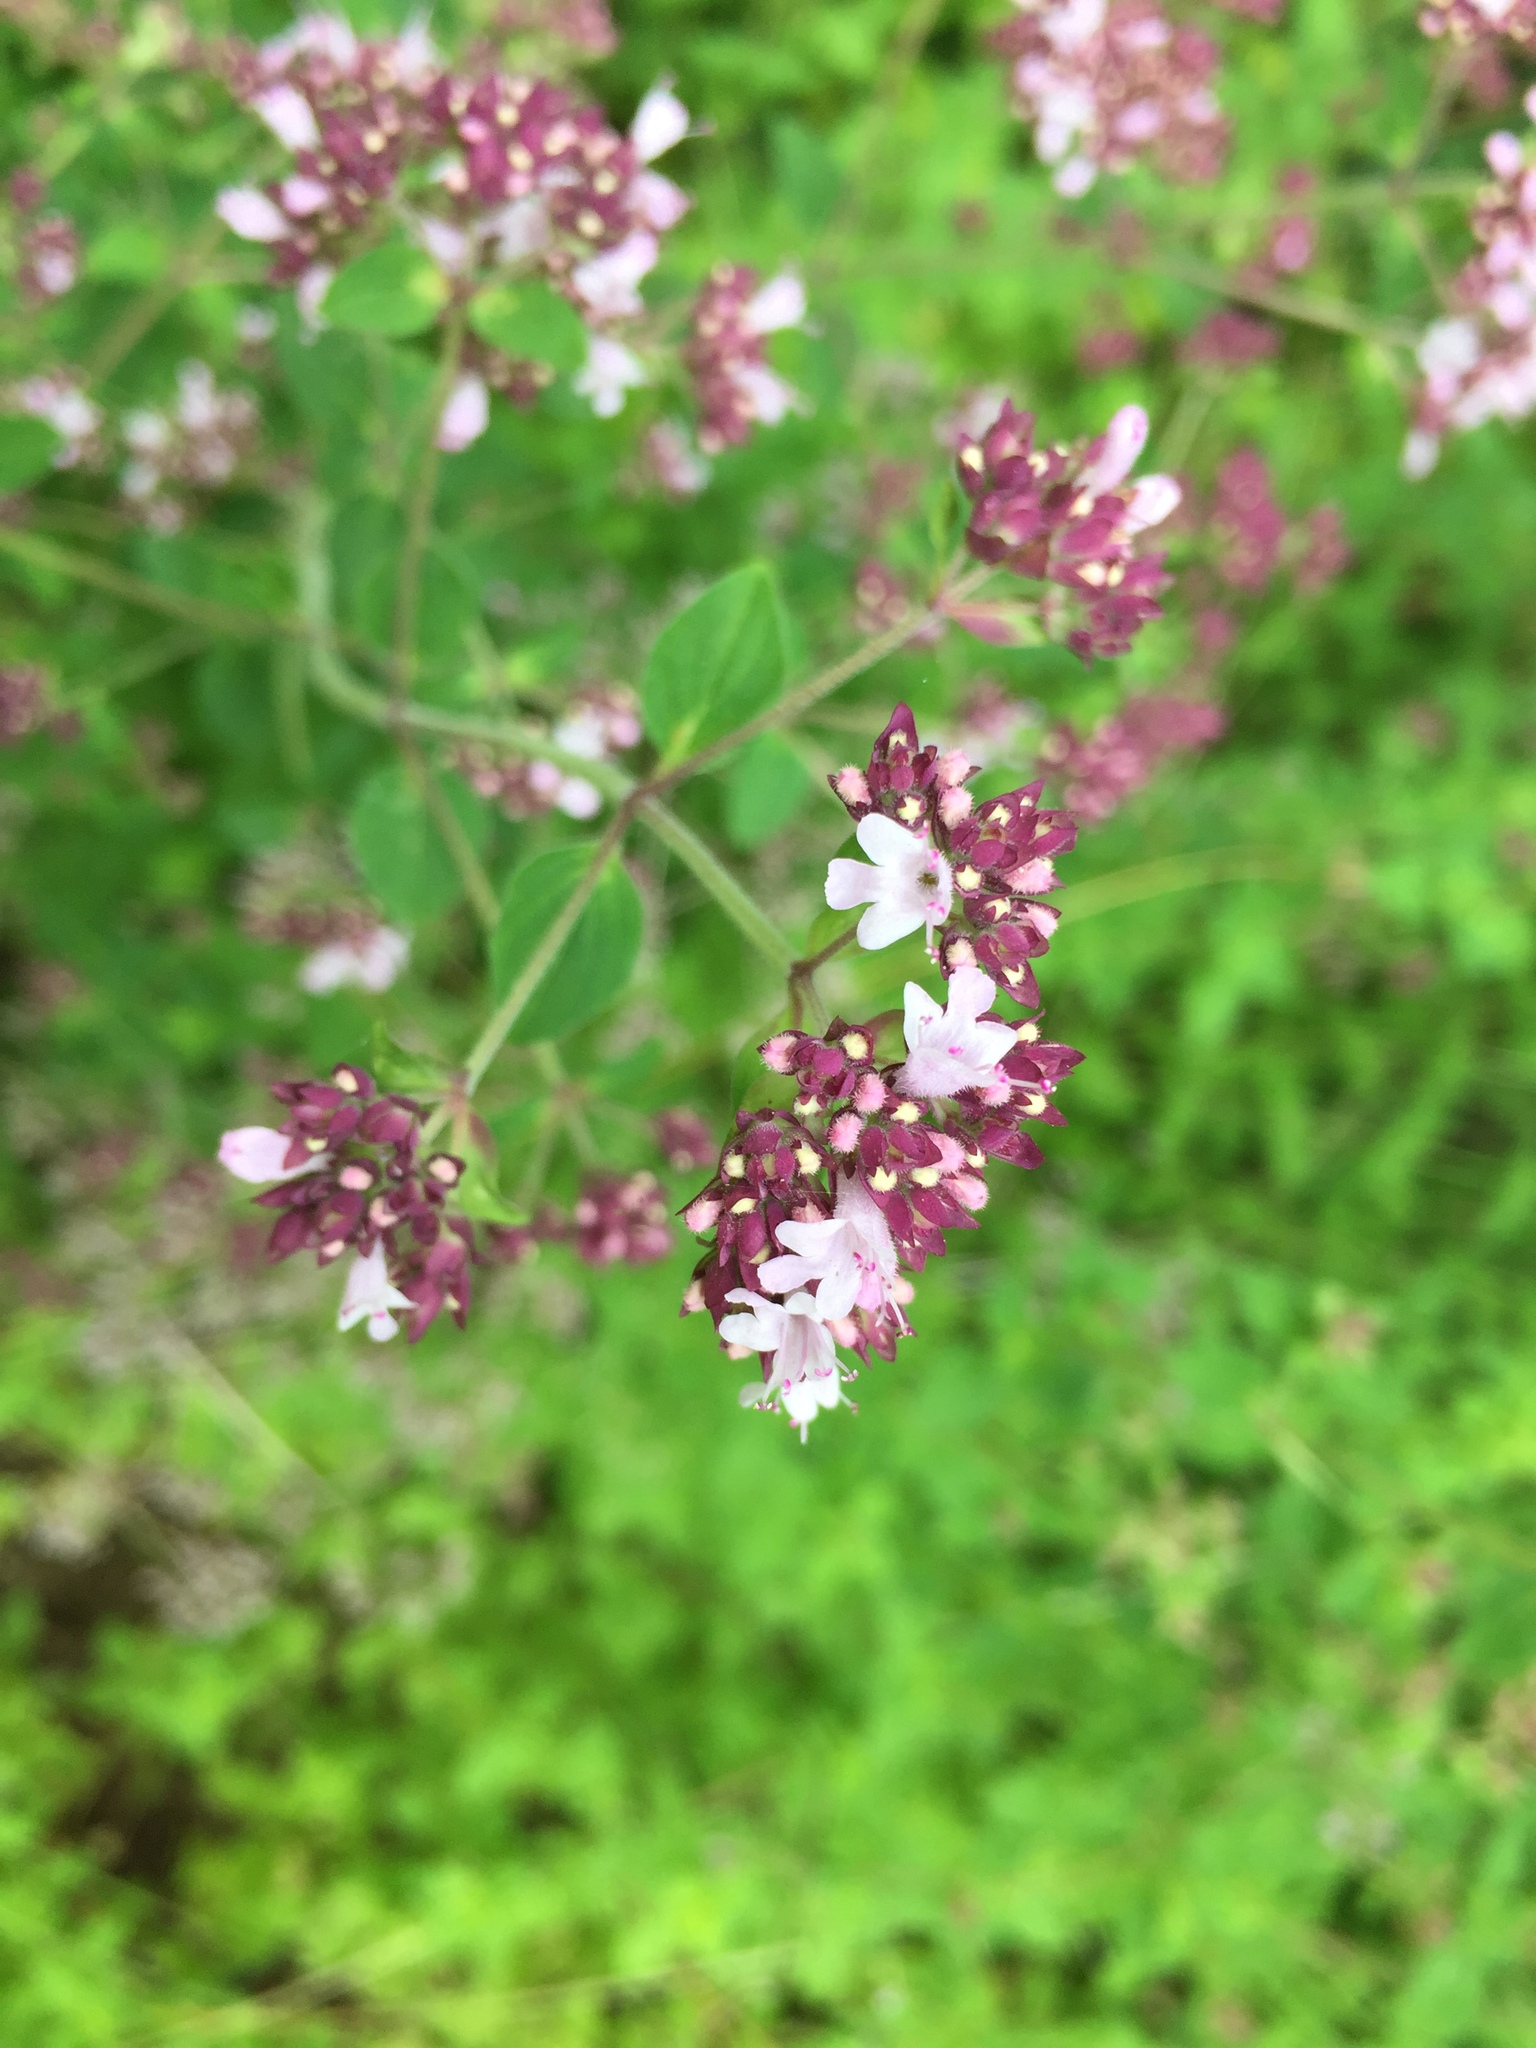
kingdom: Plantae
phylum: Tracheophyta
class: Magnoliopsida
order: Lamiales
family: Lamiaceae
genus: Origanum
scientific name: Origanum vulgare
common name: Wild marjoram
